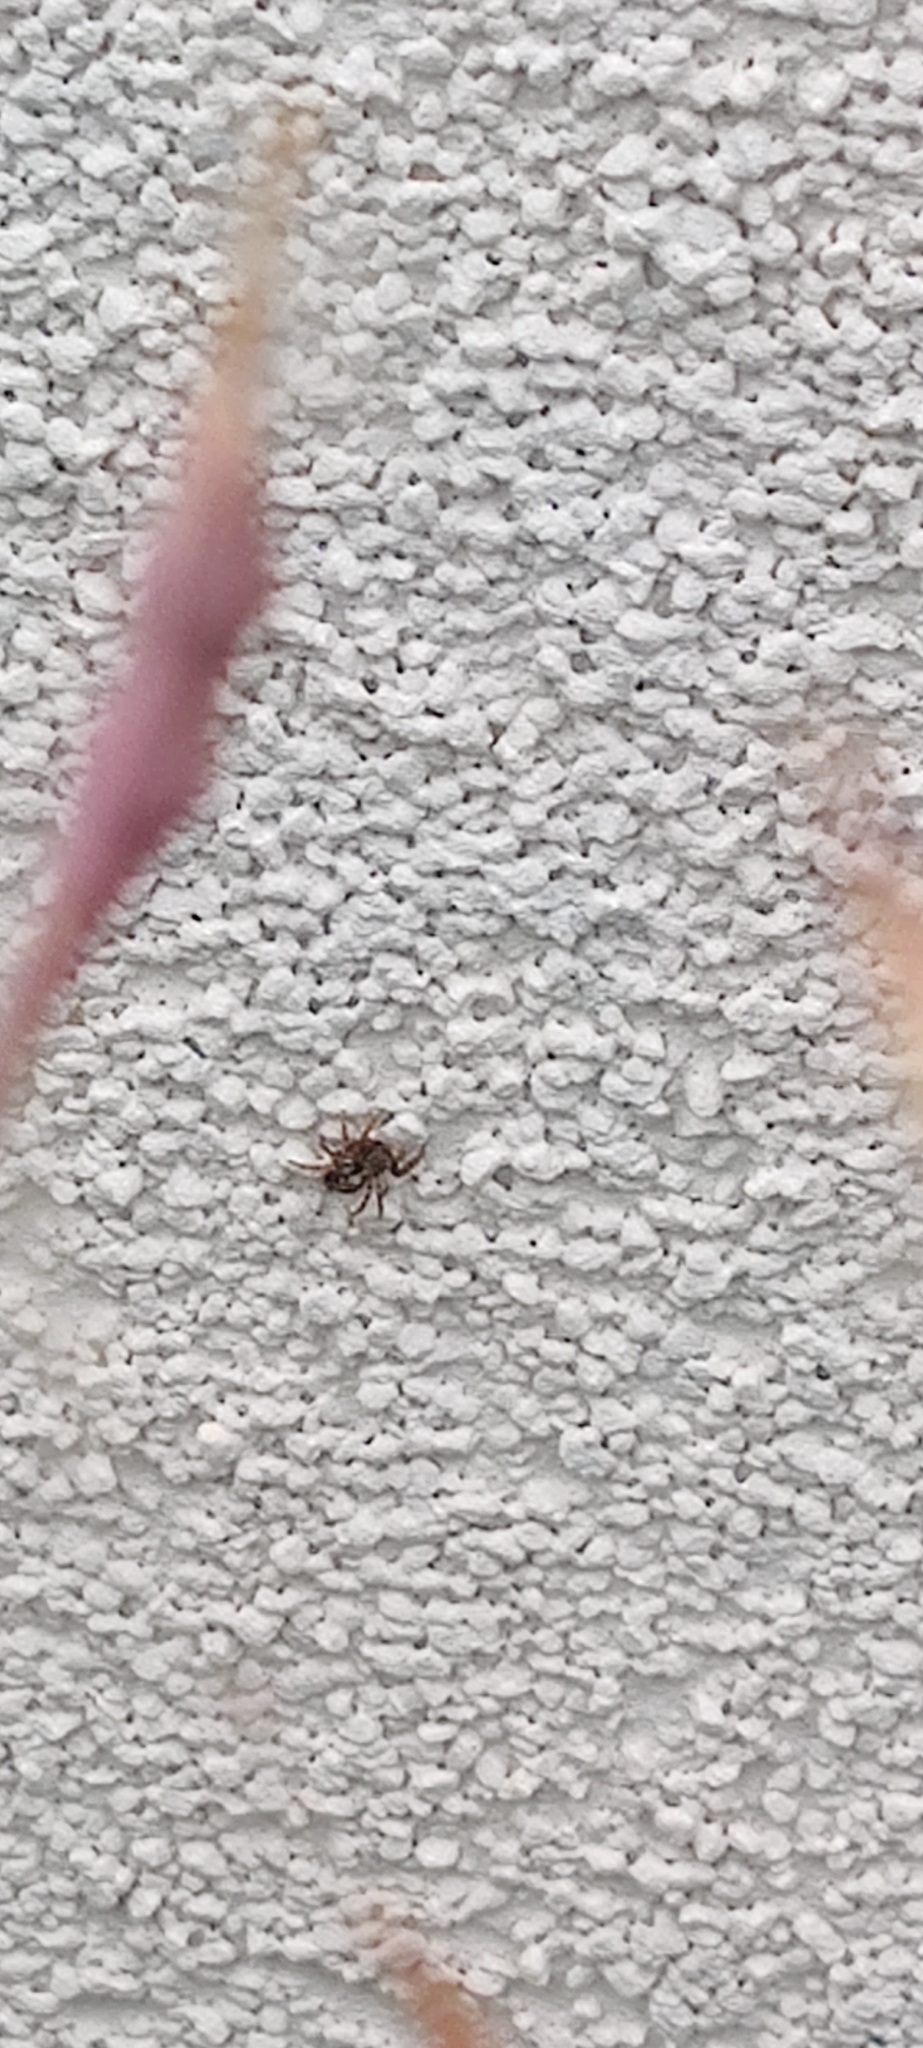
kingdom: Animalia
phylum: Arthropoda
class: Arachnida
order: Araneae
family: Salticidae
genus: Pseudeuophrys
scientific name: Pseudeuophrys lanigera
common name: Jumping spider
